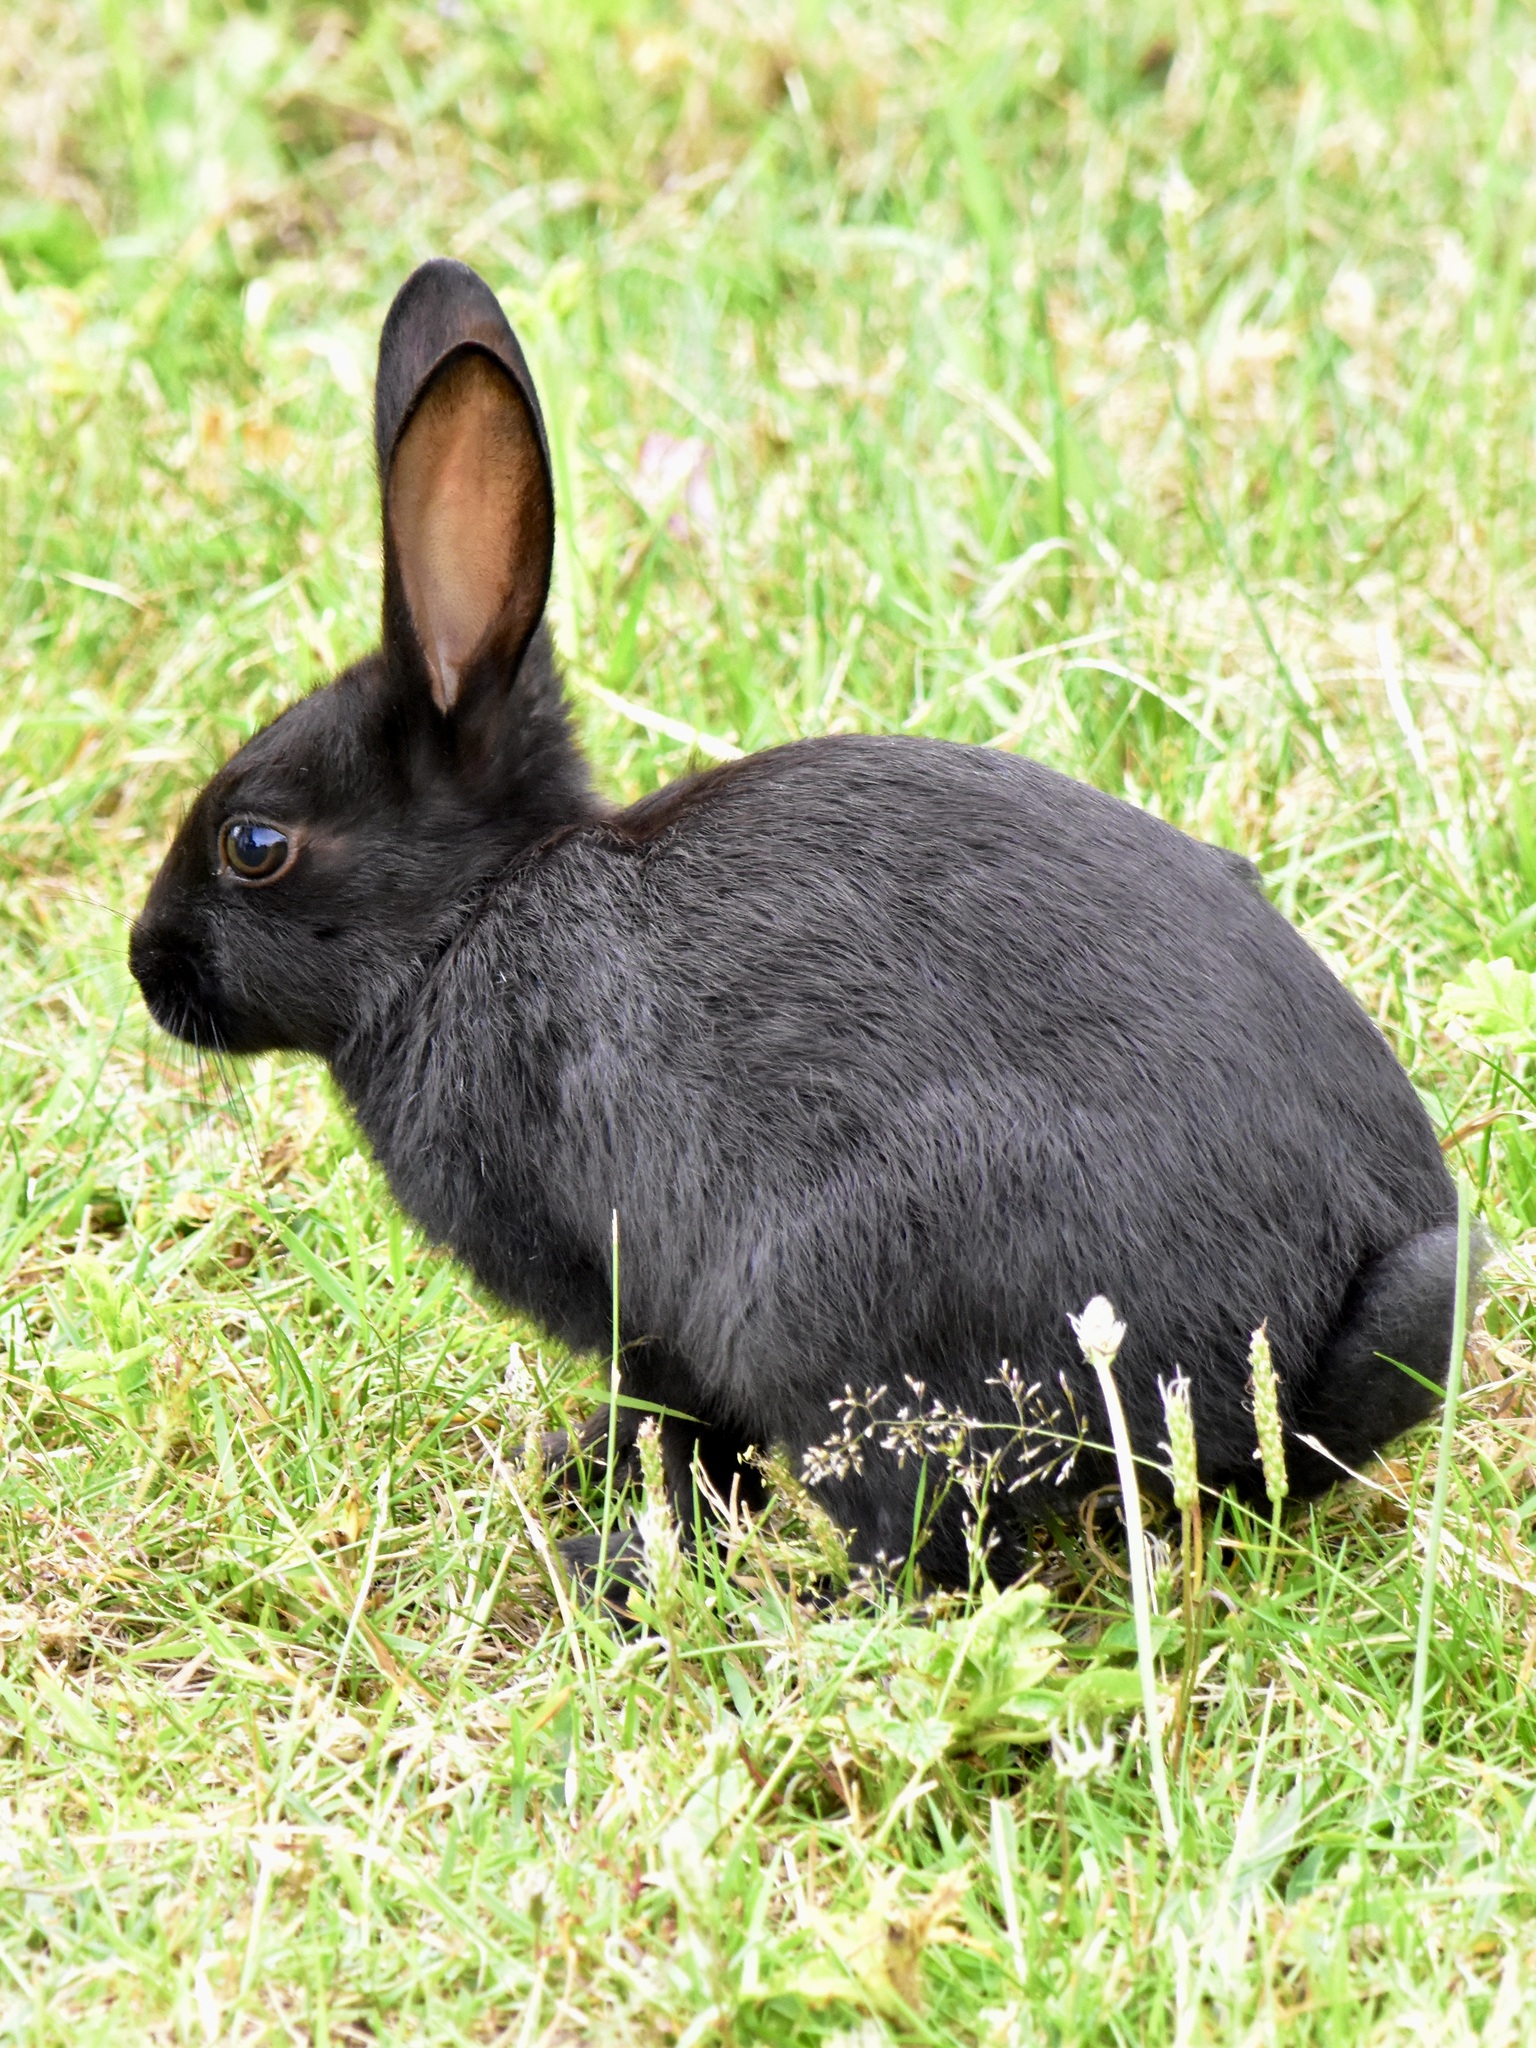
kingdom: Animalia
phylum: Chordata
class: Mammalia
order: Lagomorpha
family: Leporidae
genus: Oryctolagus
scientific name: Oryctolagus cuniculus
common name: European rabbit
